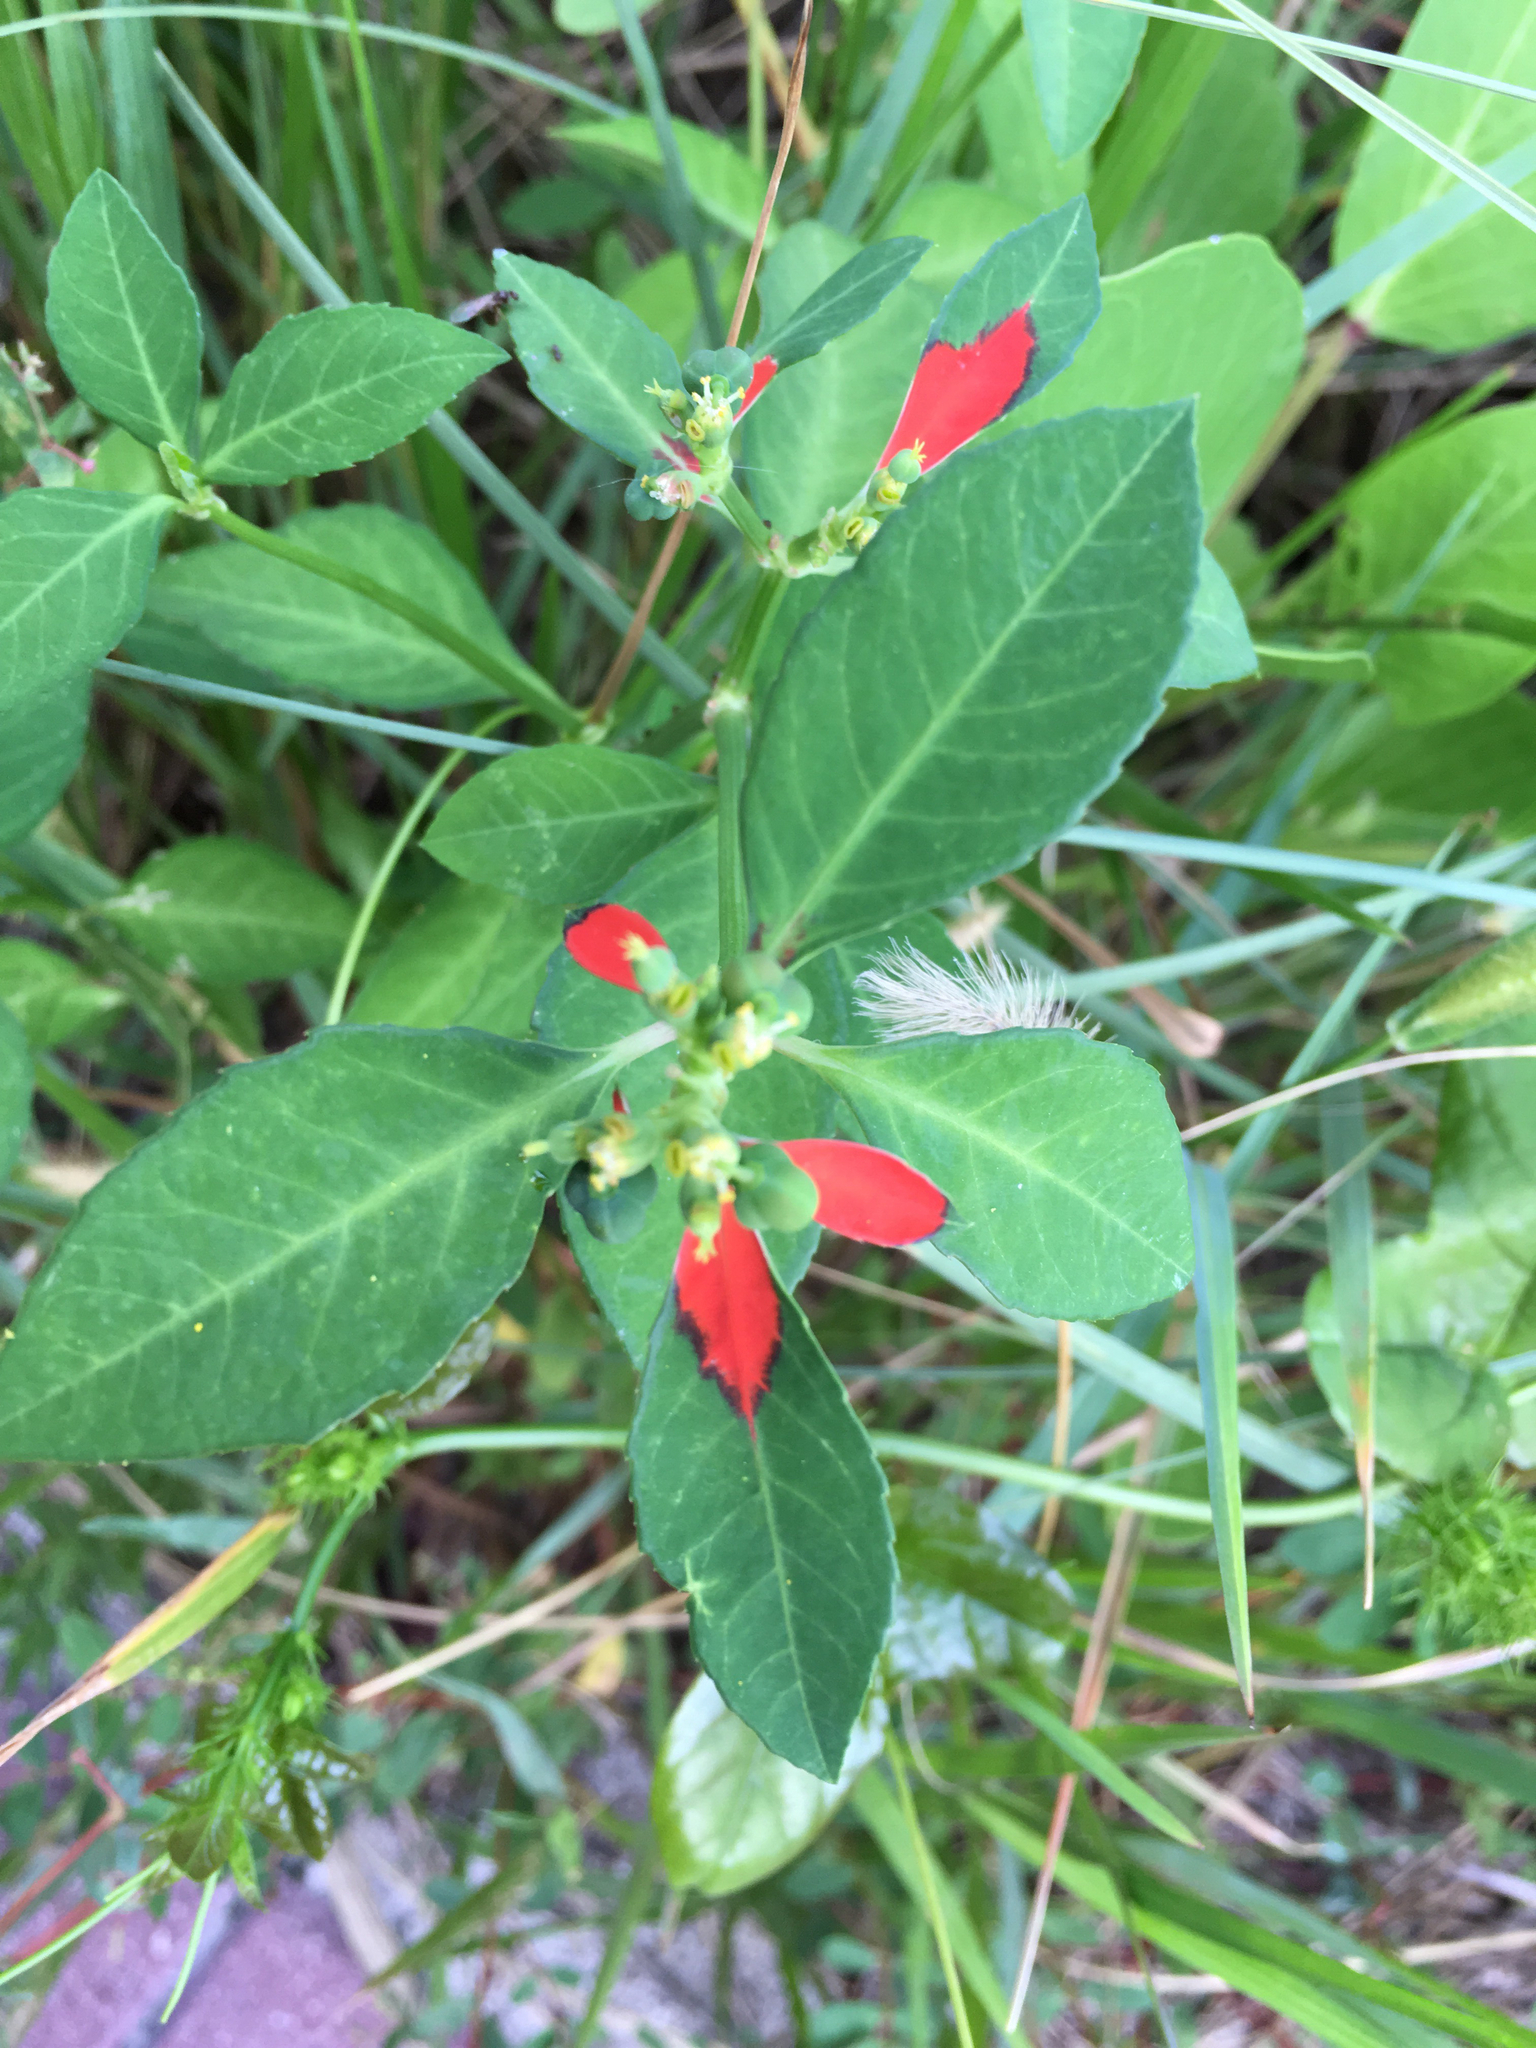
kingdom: Plantae
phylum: Tracheophyta
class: Magnoliopsida
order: Malpighiales
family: Euphorbiaceae
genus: Euphorbia
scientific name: Euphorbia heterophylla
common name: Mexican fireplant
